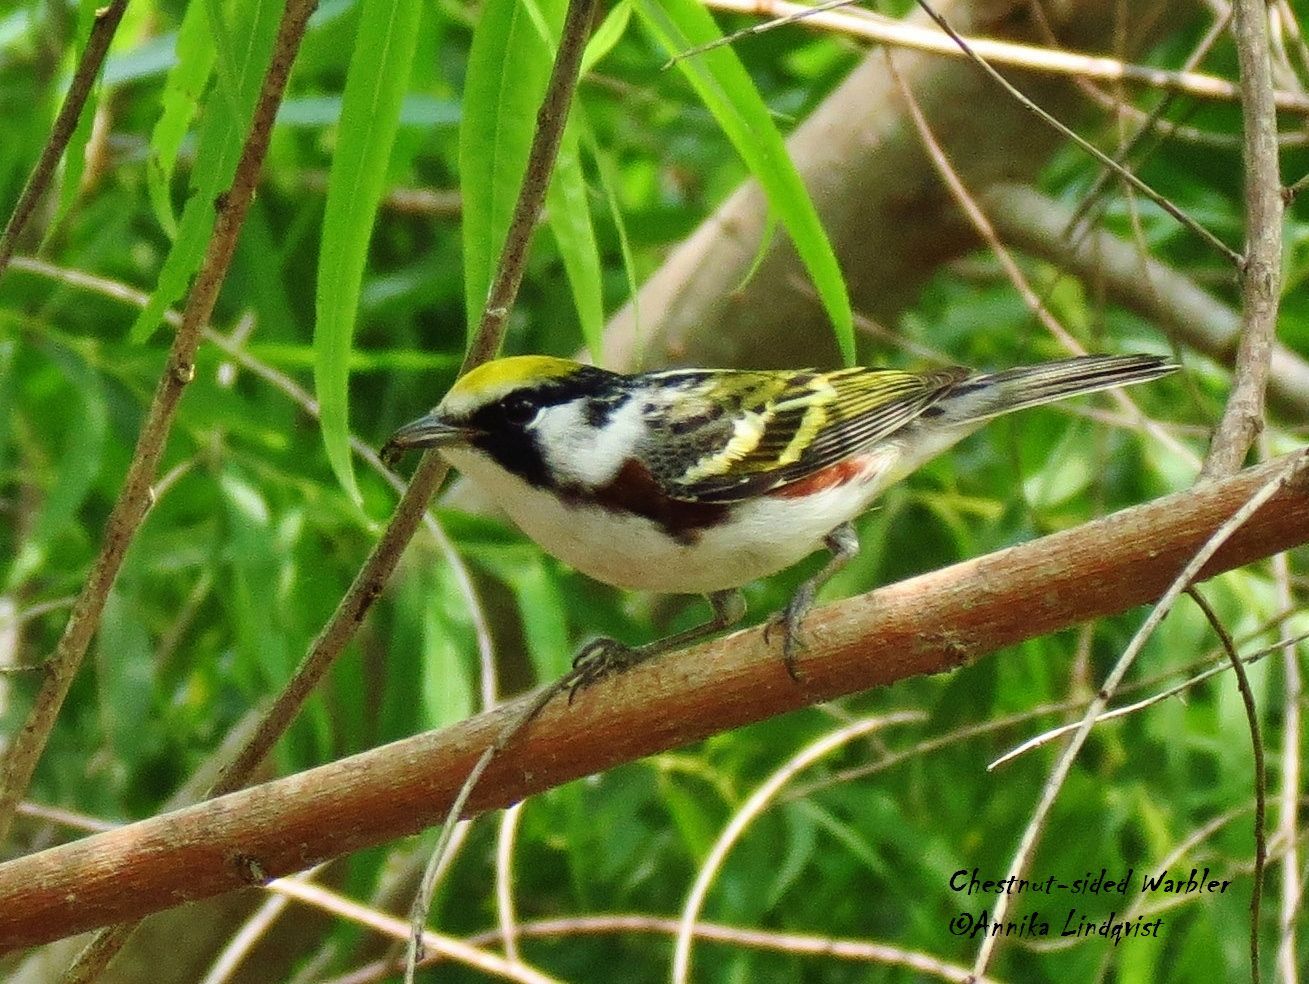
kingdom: Animalia
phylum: Chordata
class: Aves
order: Passeriformes
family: Parulidae
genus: Setophaga
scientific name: Setophaga pensylvanica
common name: Chestnut-sided warbler
